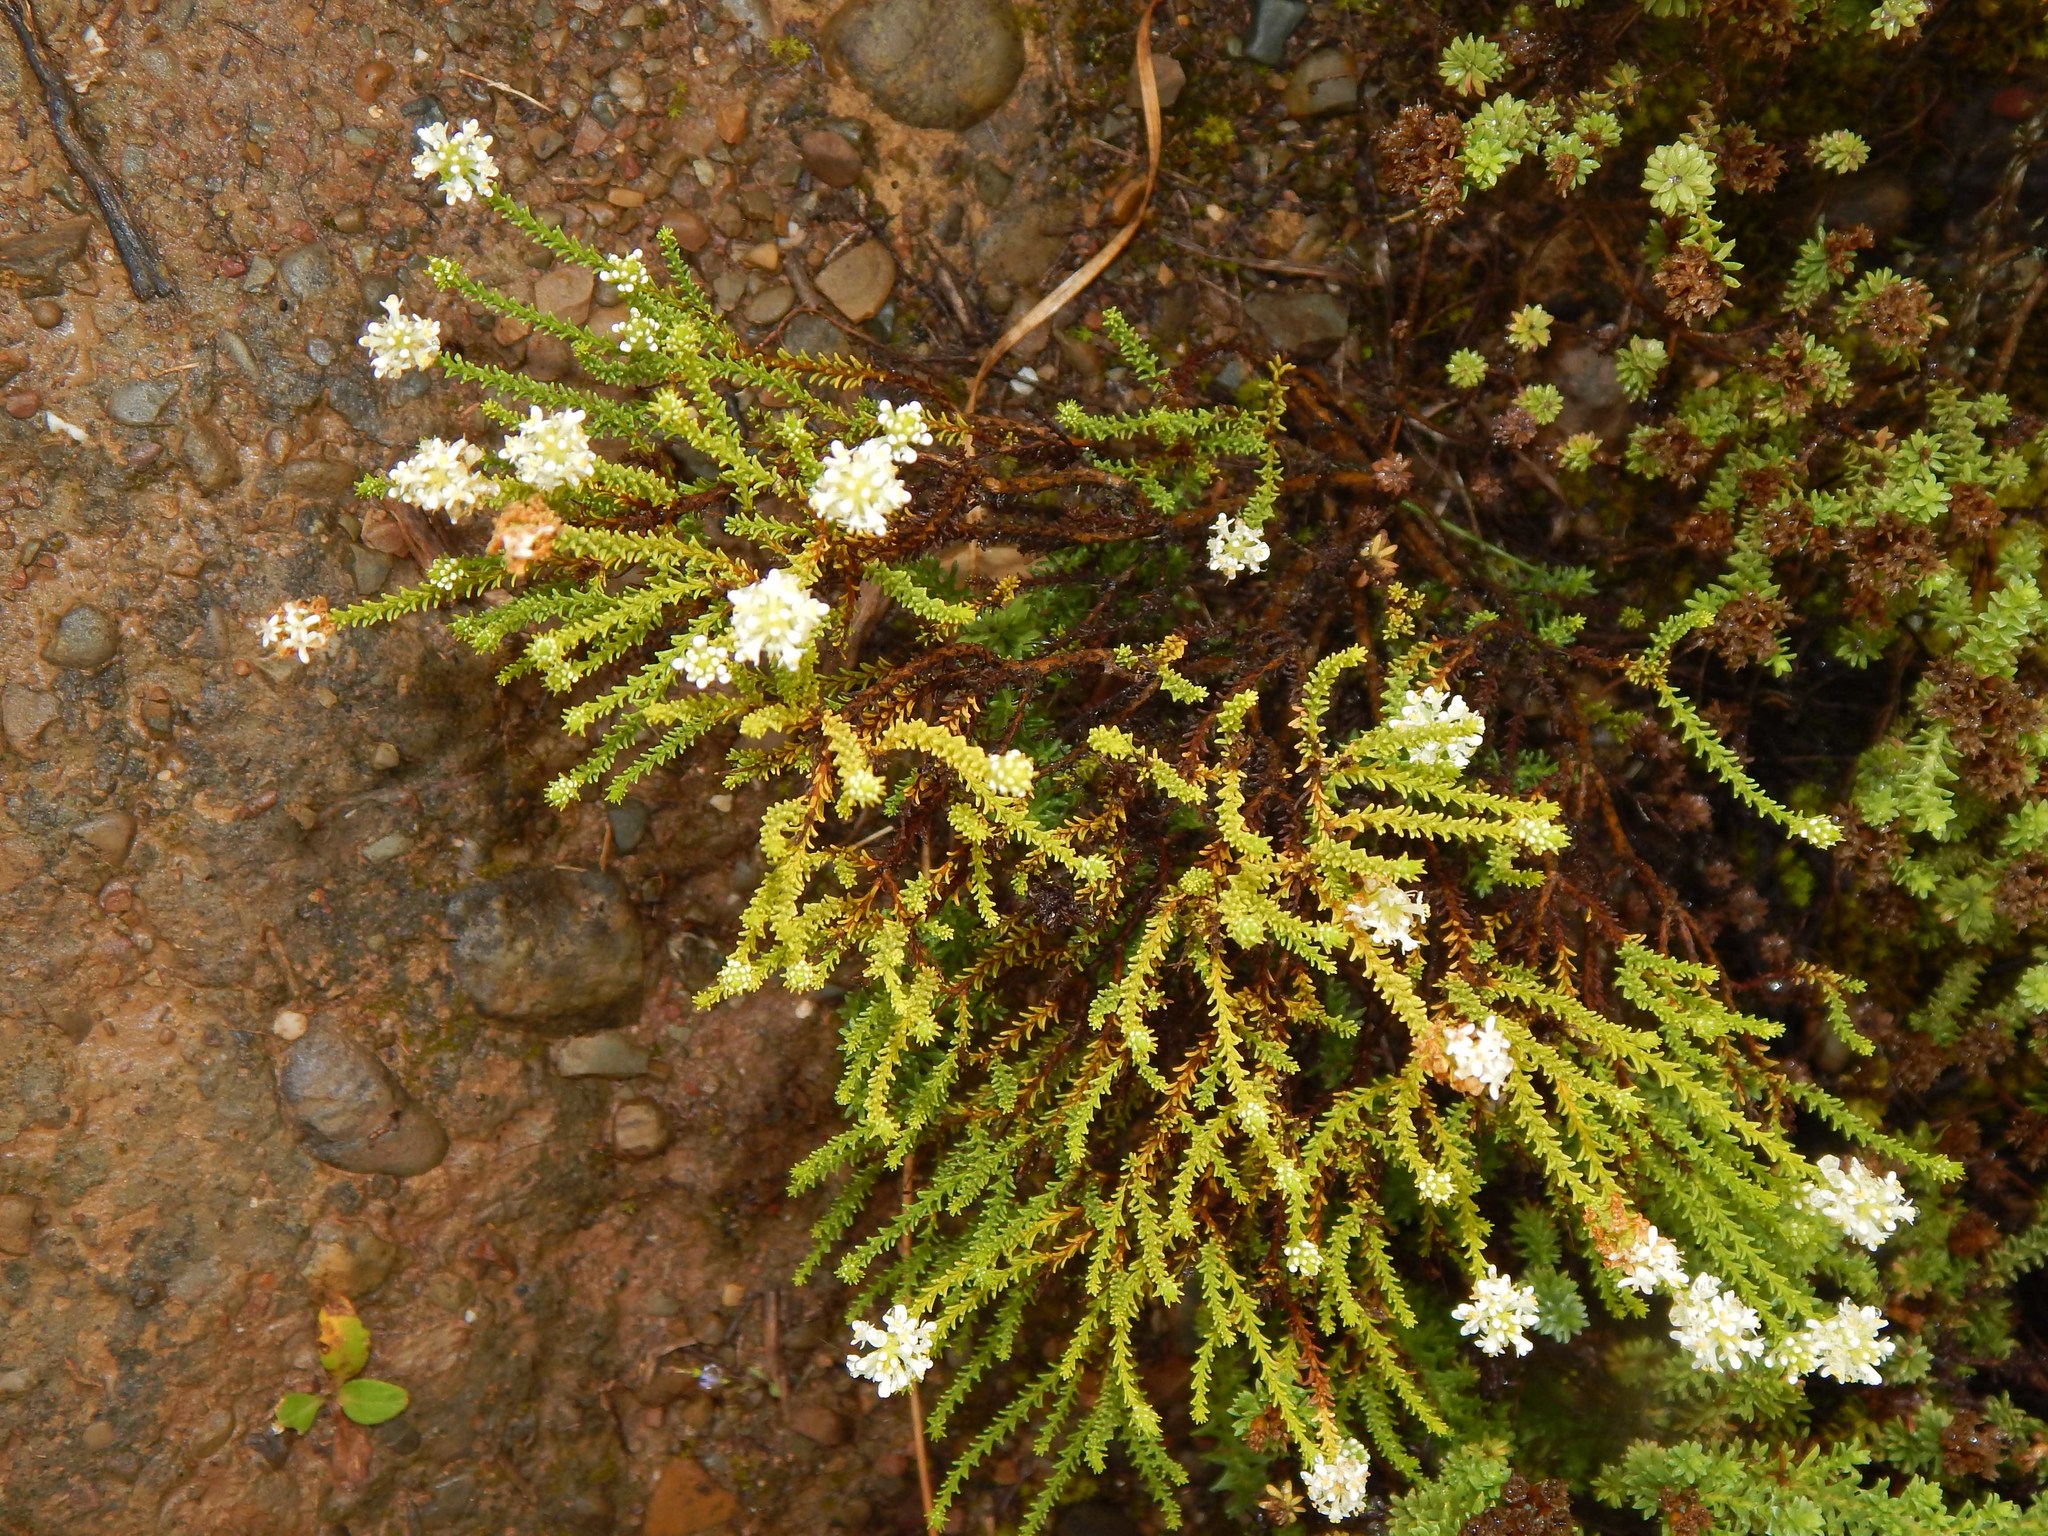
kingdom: Plantae
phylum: Tracheophyta
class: Magnoliopsida
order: Lamiales
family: Scrophulariaceae
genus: Selago
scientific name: Selago ramosissima
